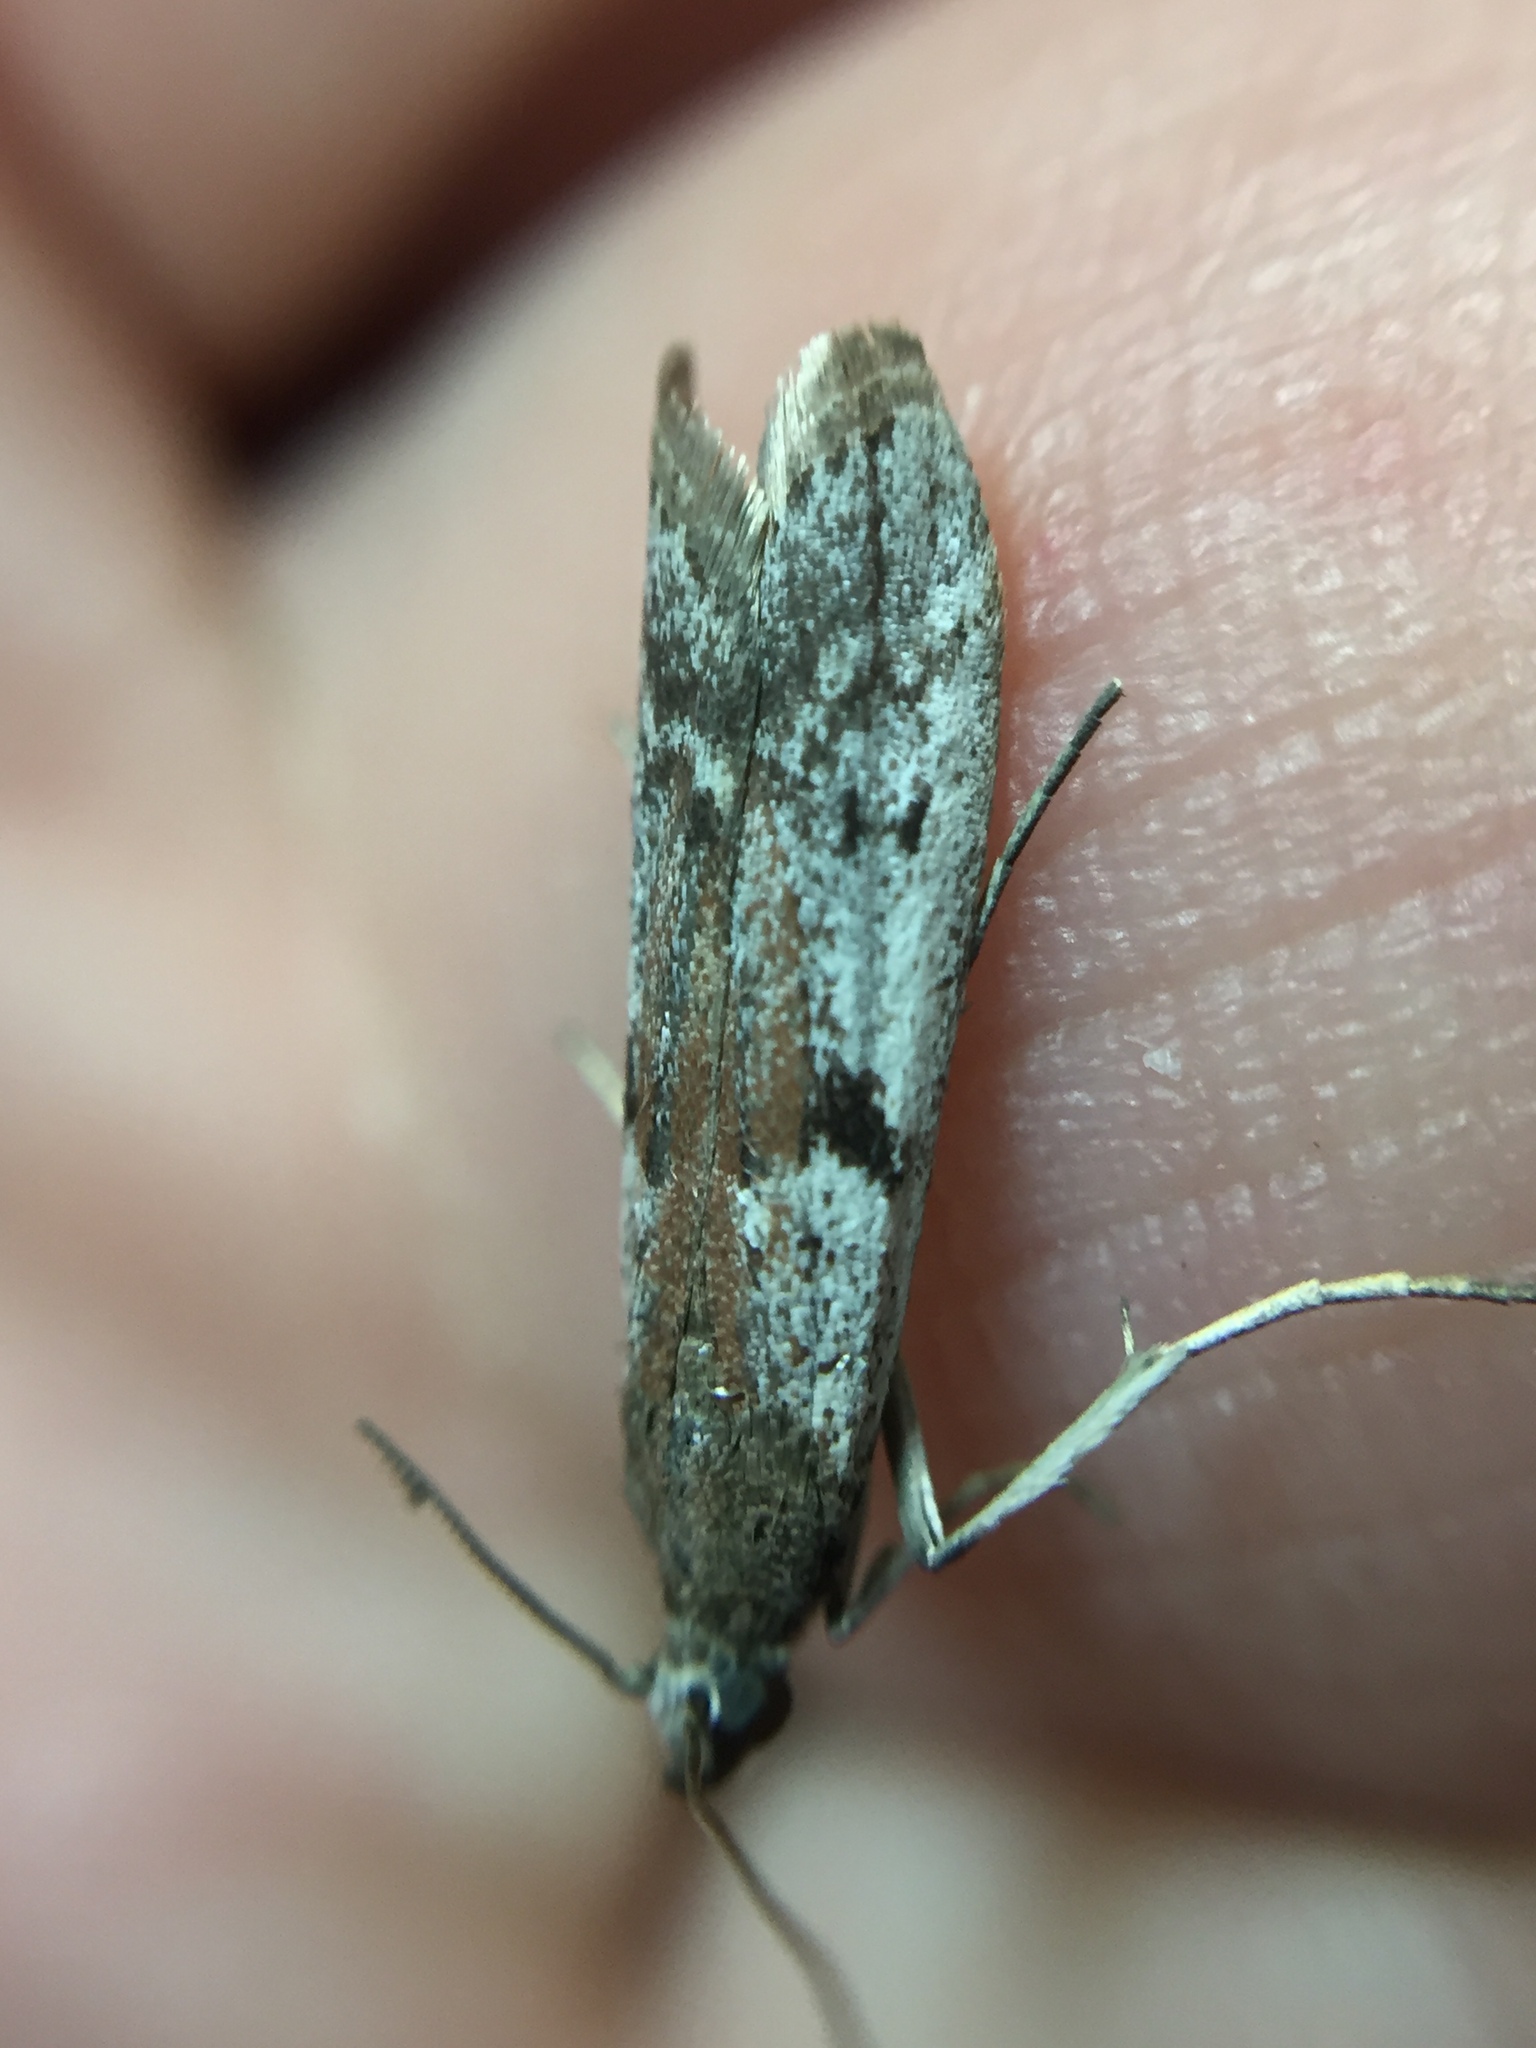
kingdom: Animalia
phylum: Arthropoda
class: Insecta
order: Lepidoptera
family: Pyralidae
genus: Patagoniodes
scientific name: Patagoniodes farinaria
